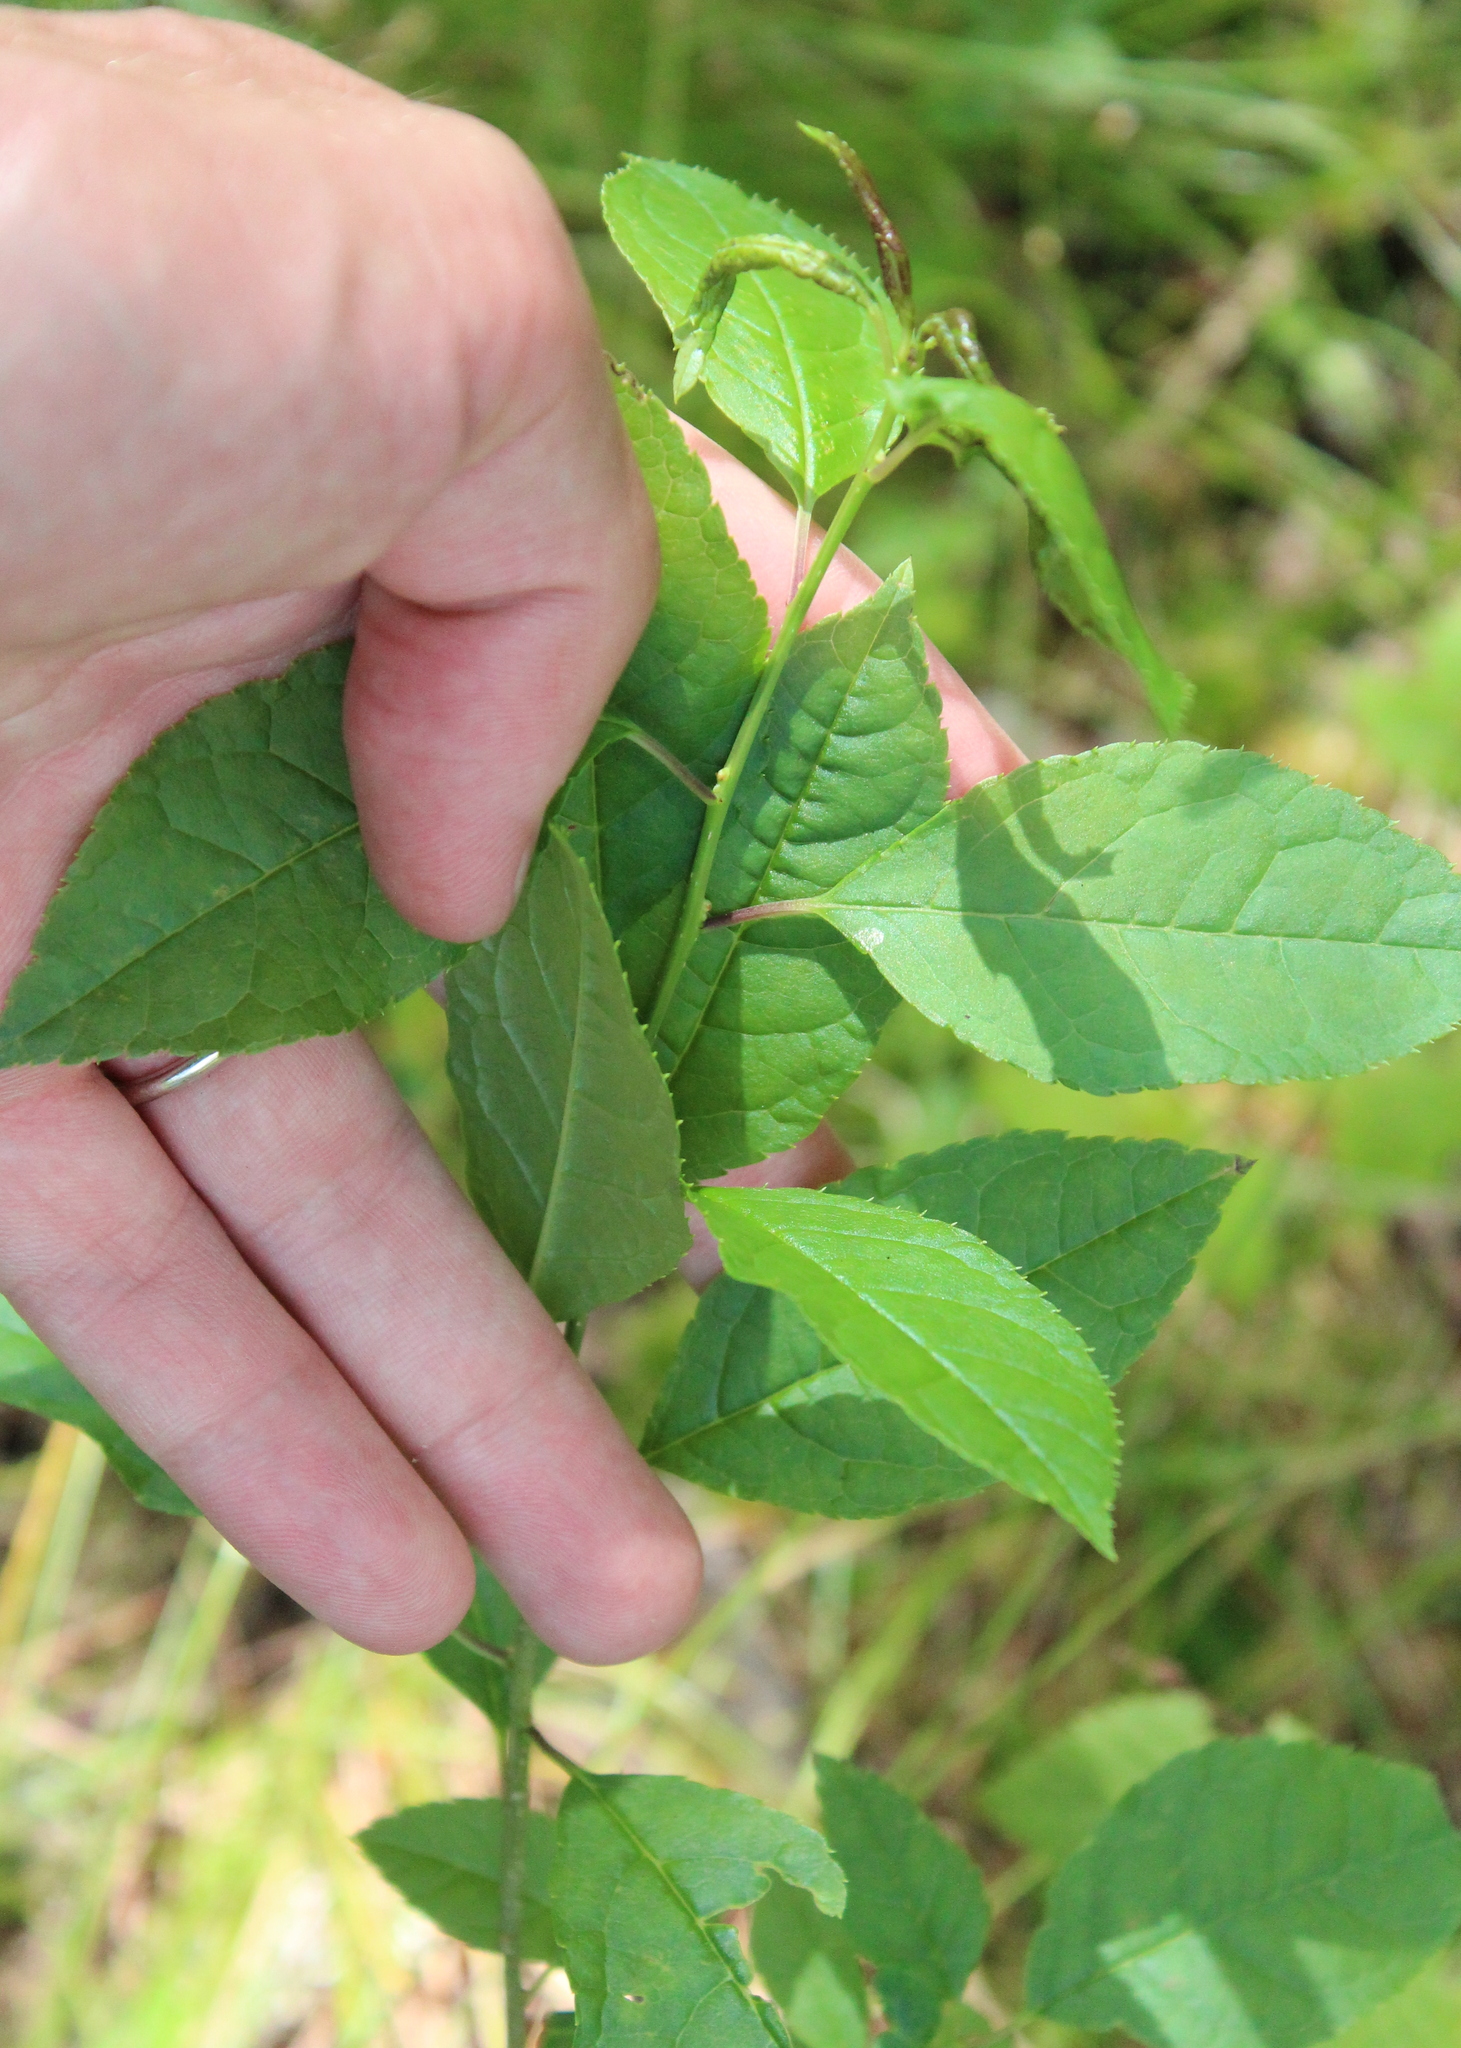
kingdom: Plantae
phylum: Tracheophyta
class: Magnoliopsida
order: Aquifoliales
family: Aquifoliaceae
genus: Ilex
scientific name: Ilex verticillata
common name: Virginia winterberry
